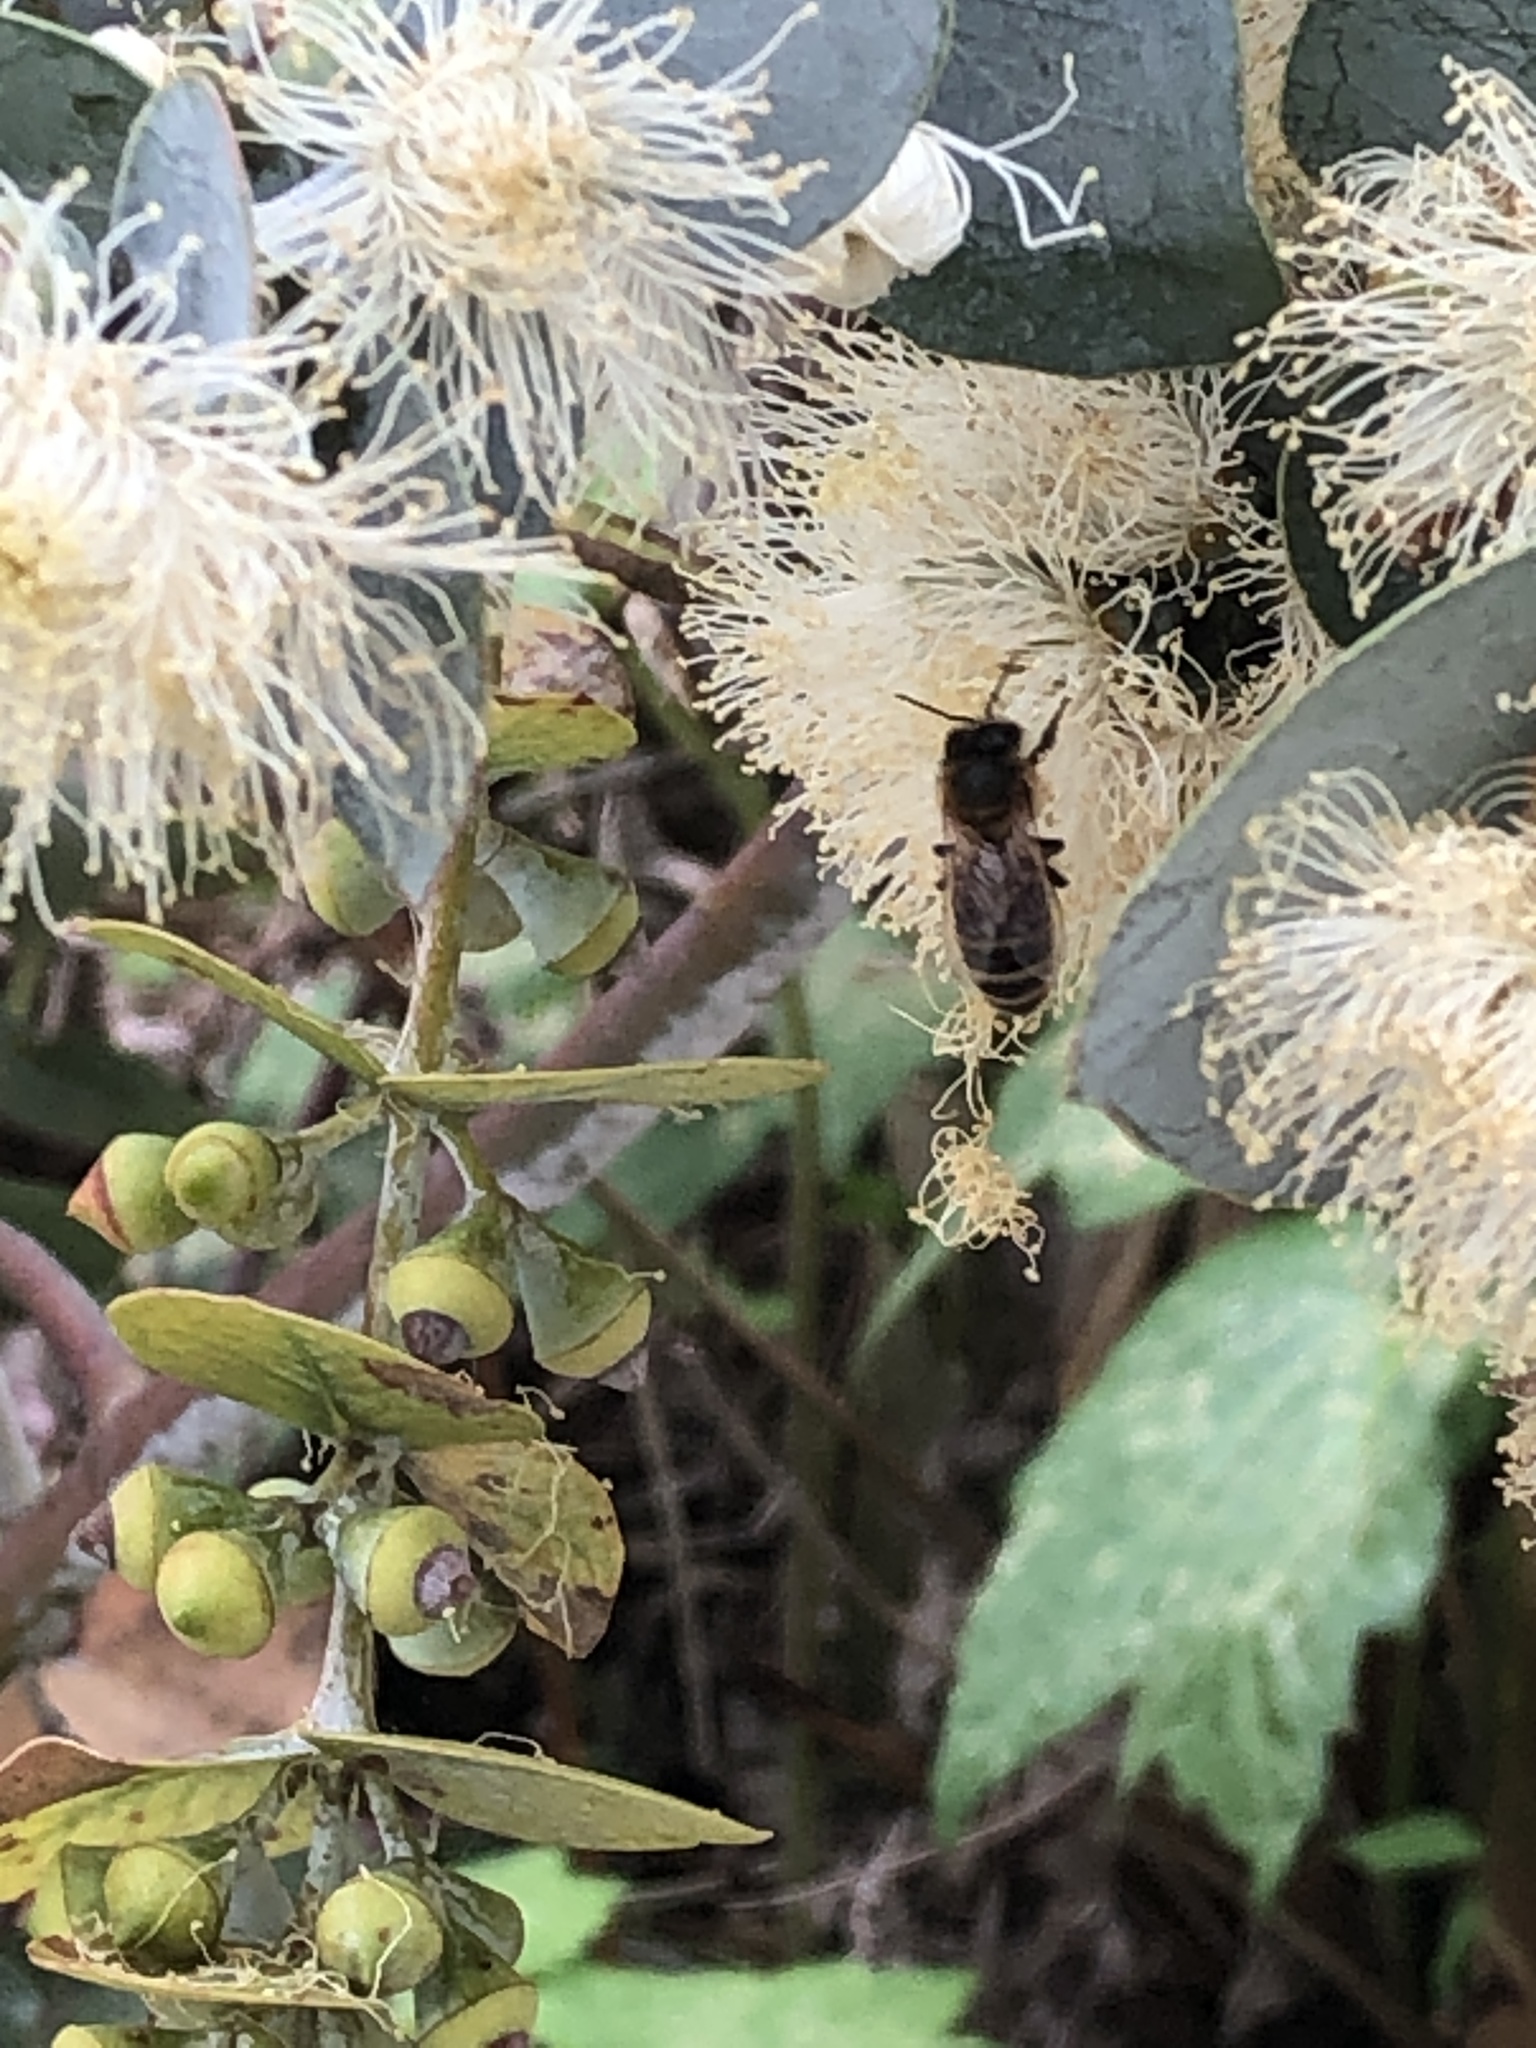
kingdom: Animalia
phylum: Arthropoda
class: Insecta
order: Hymenoptera
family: Apidae
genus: Apis
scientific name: Apis mellifera
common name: Honey bee
